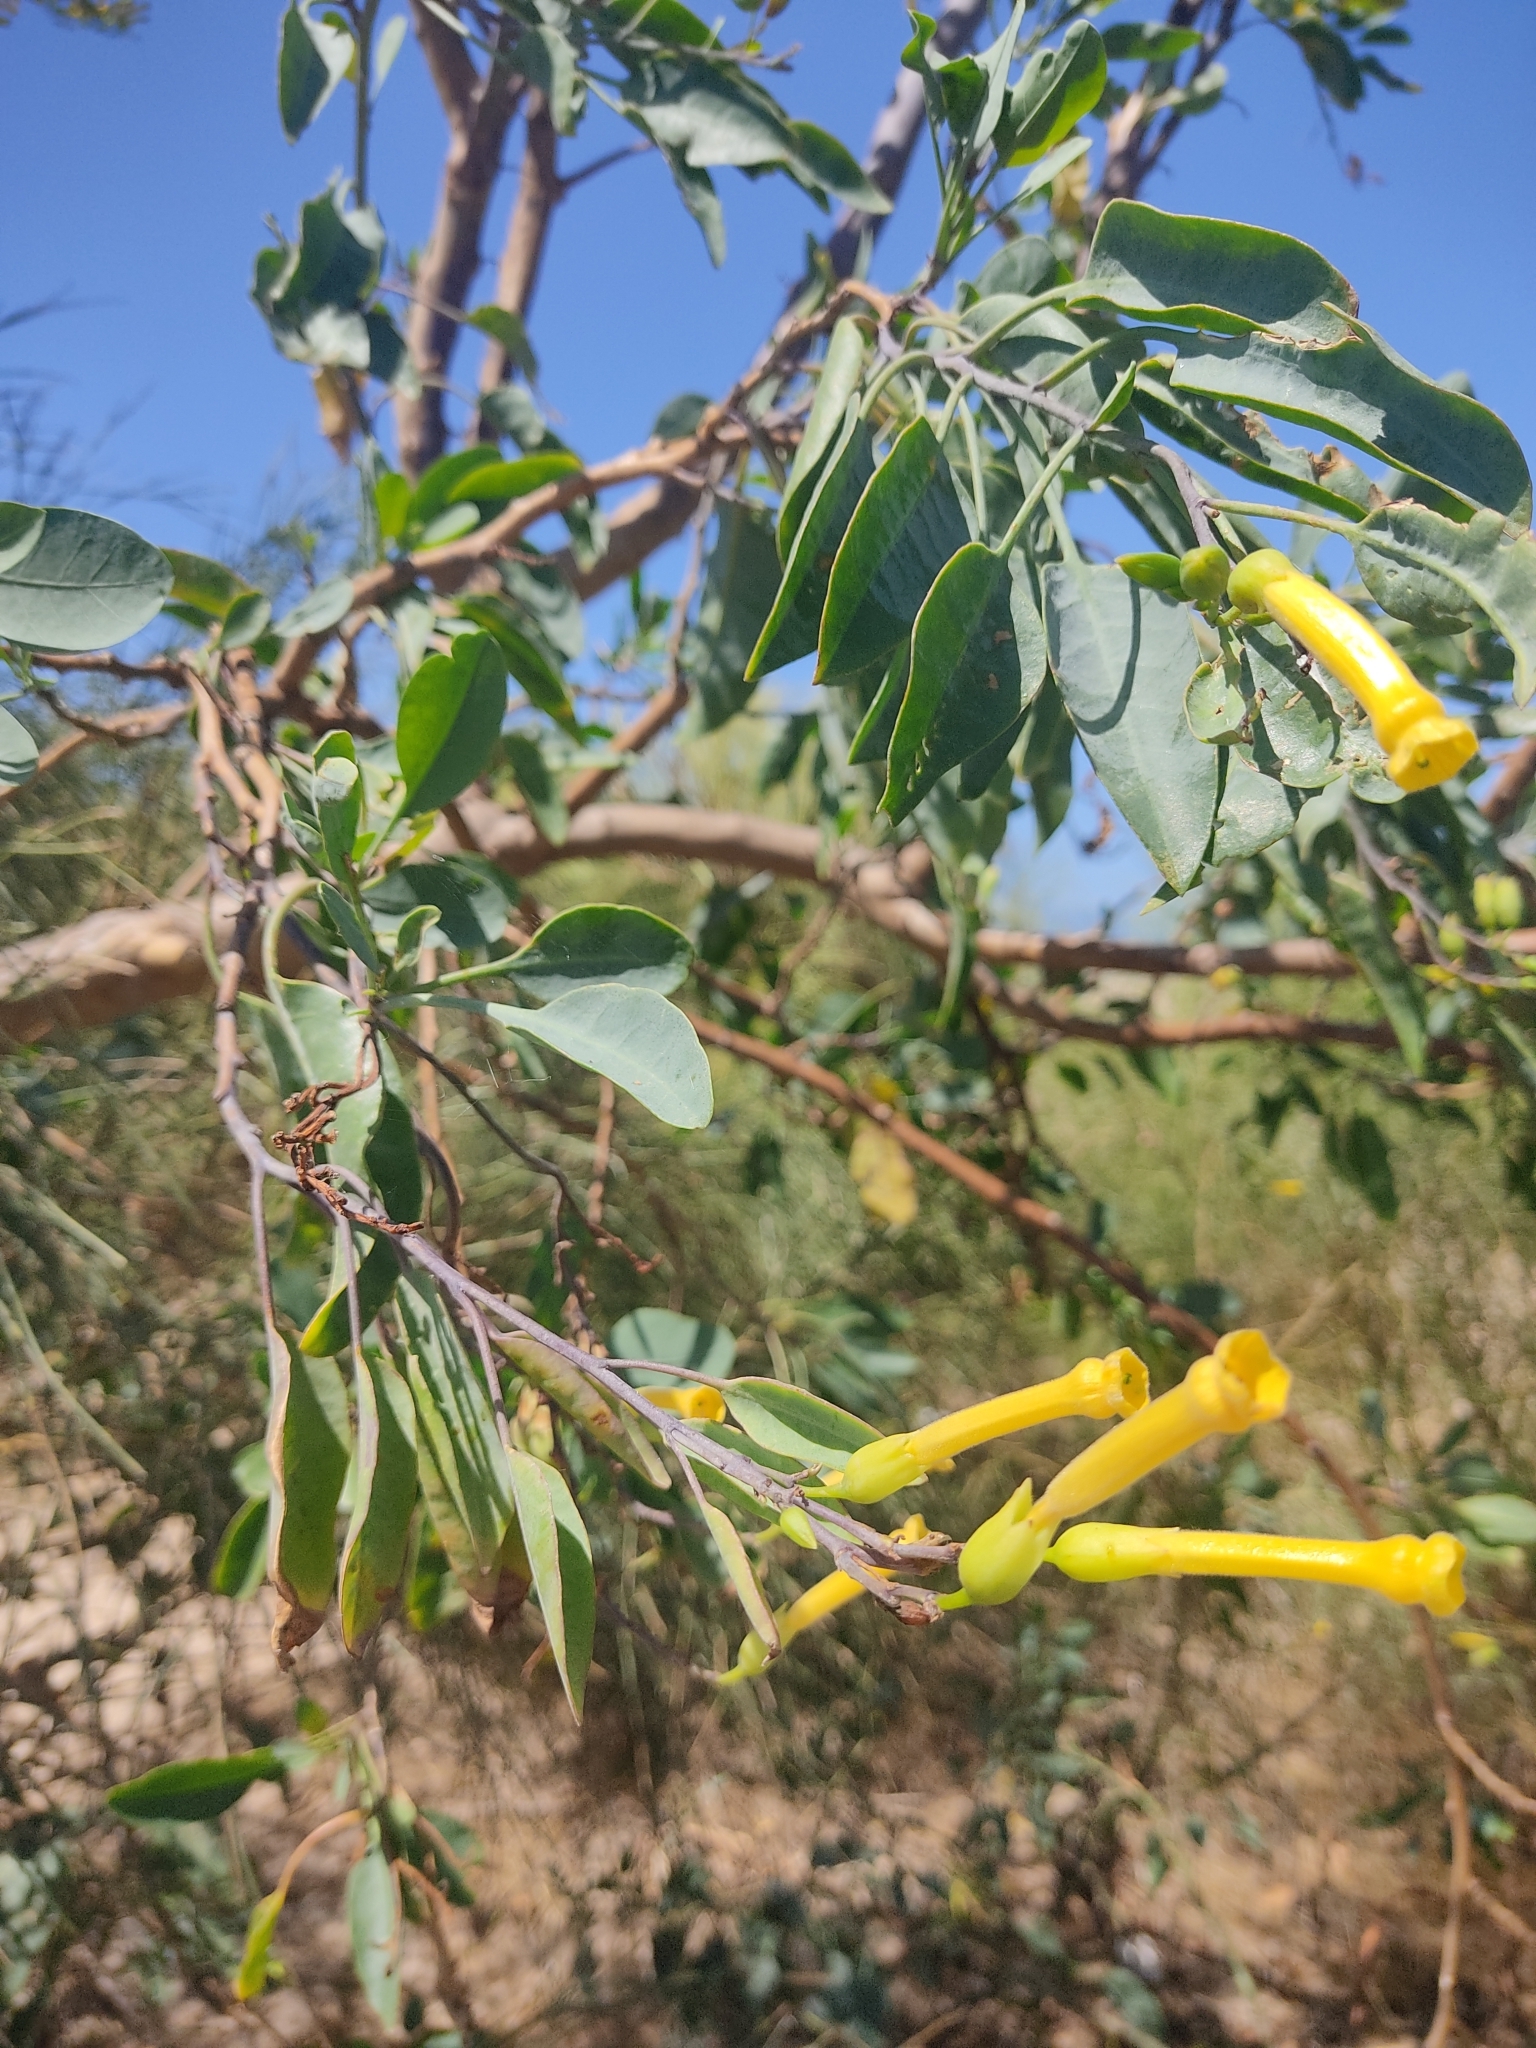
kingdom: Plantae
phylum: Tracheophyta
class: Magnoliopsida
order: Solanales
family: Solanaceae
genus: Nicotiana
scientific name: Nicotiana glauca
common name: Tree tobacco
